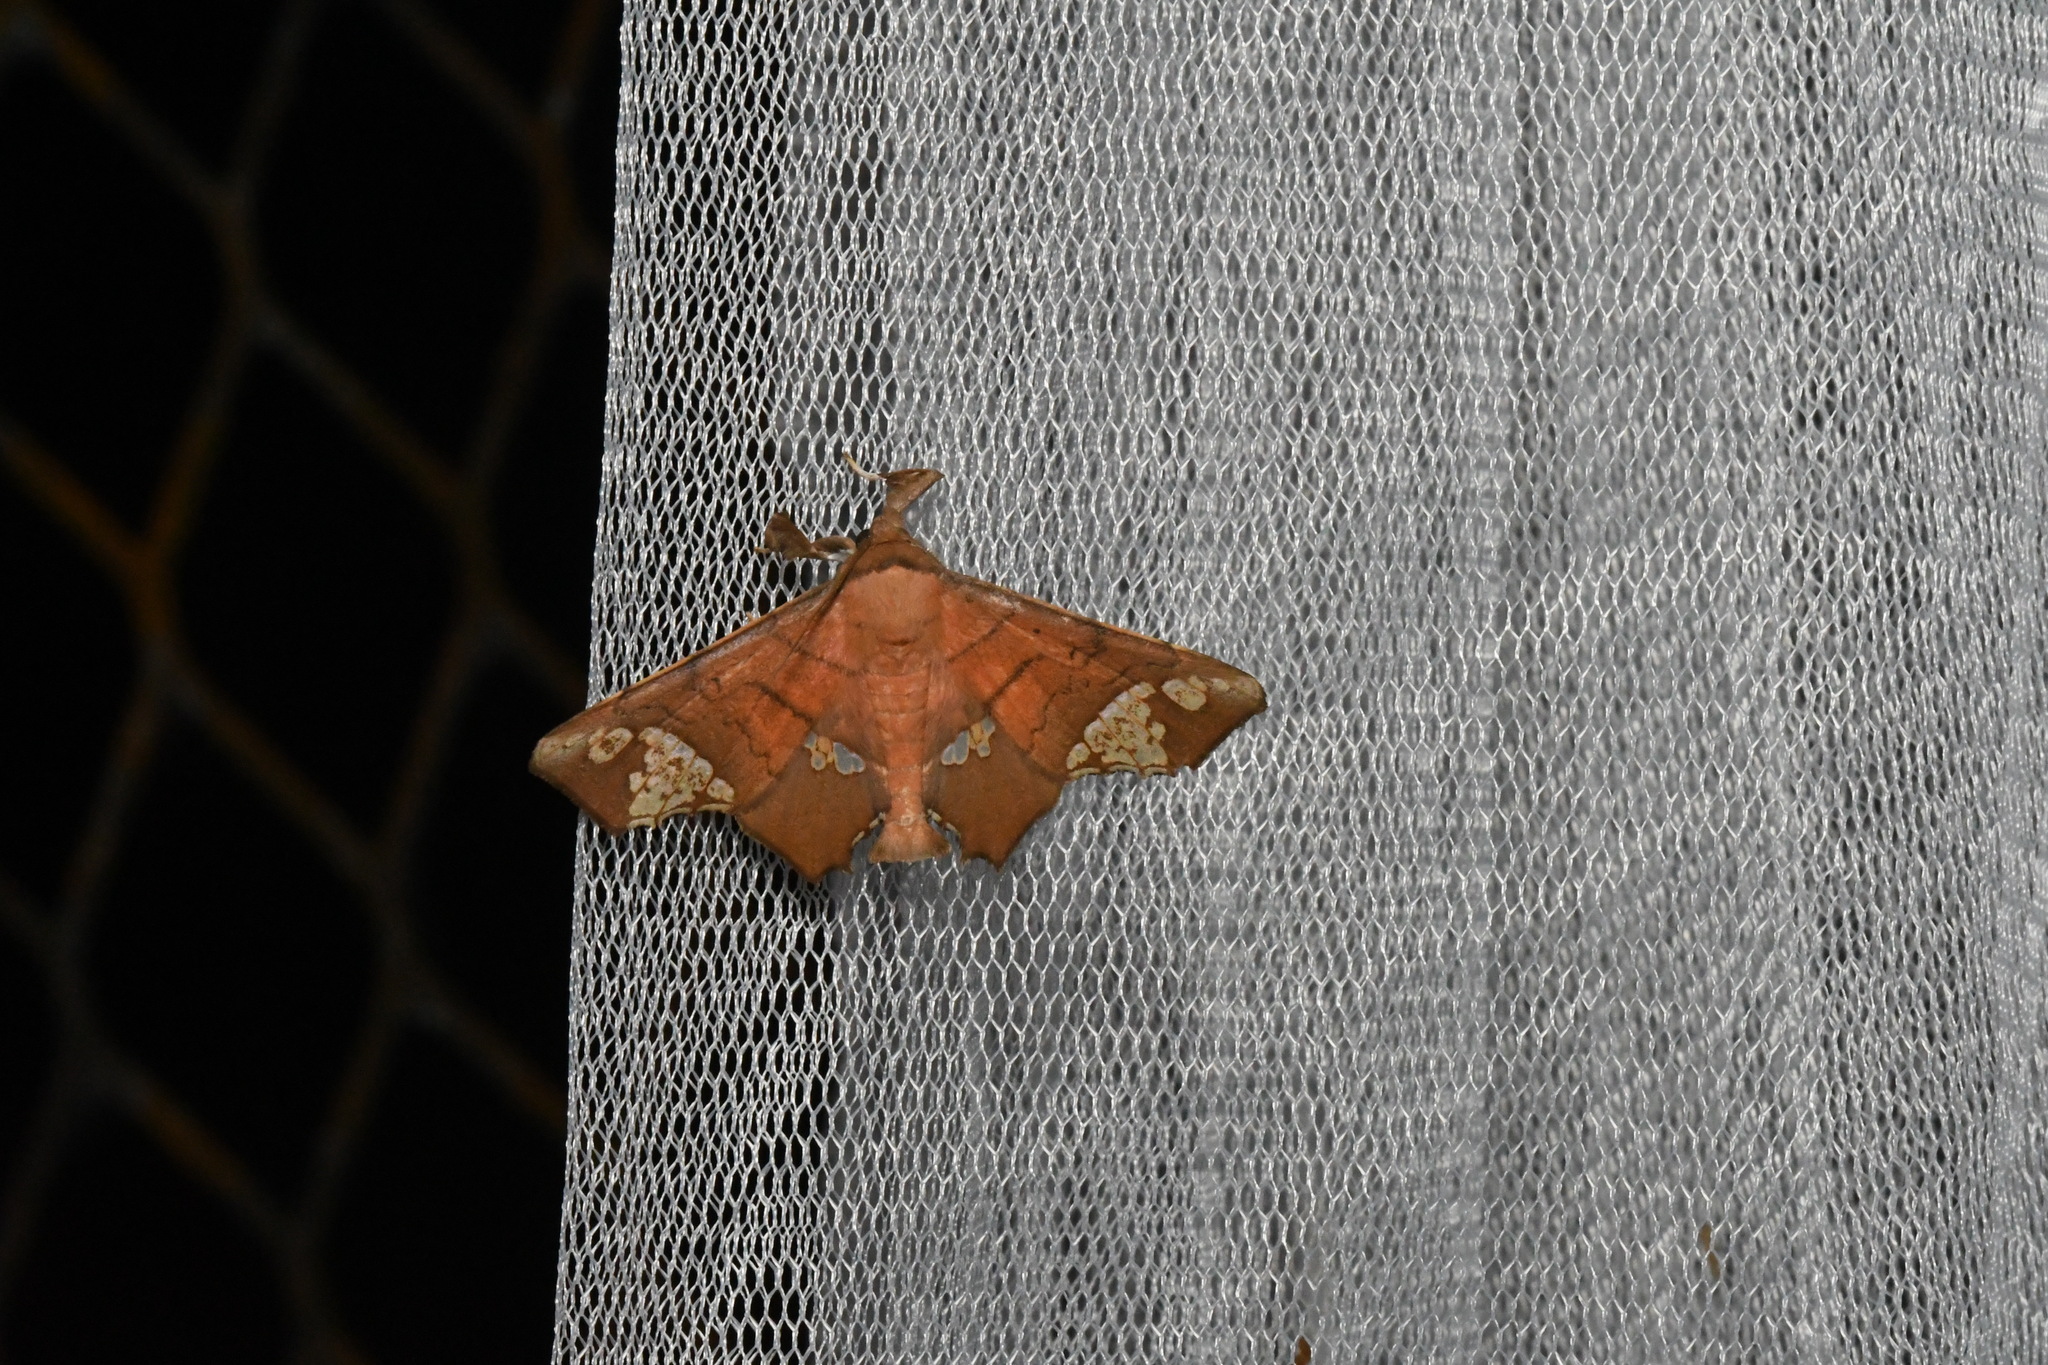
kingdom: Animalia
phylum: Arthropoda
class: Insecta
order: Lepidoptera
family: Erebidae
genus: Episparis
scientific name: Episparis fenestrifera
